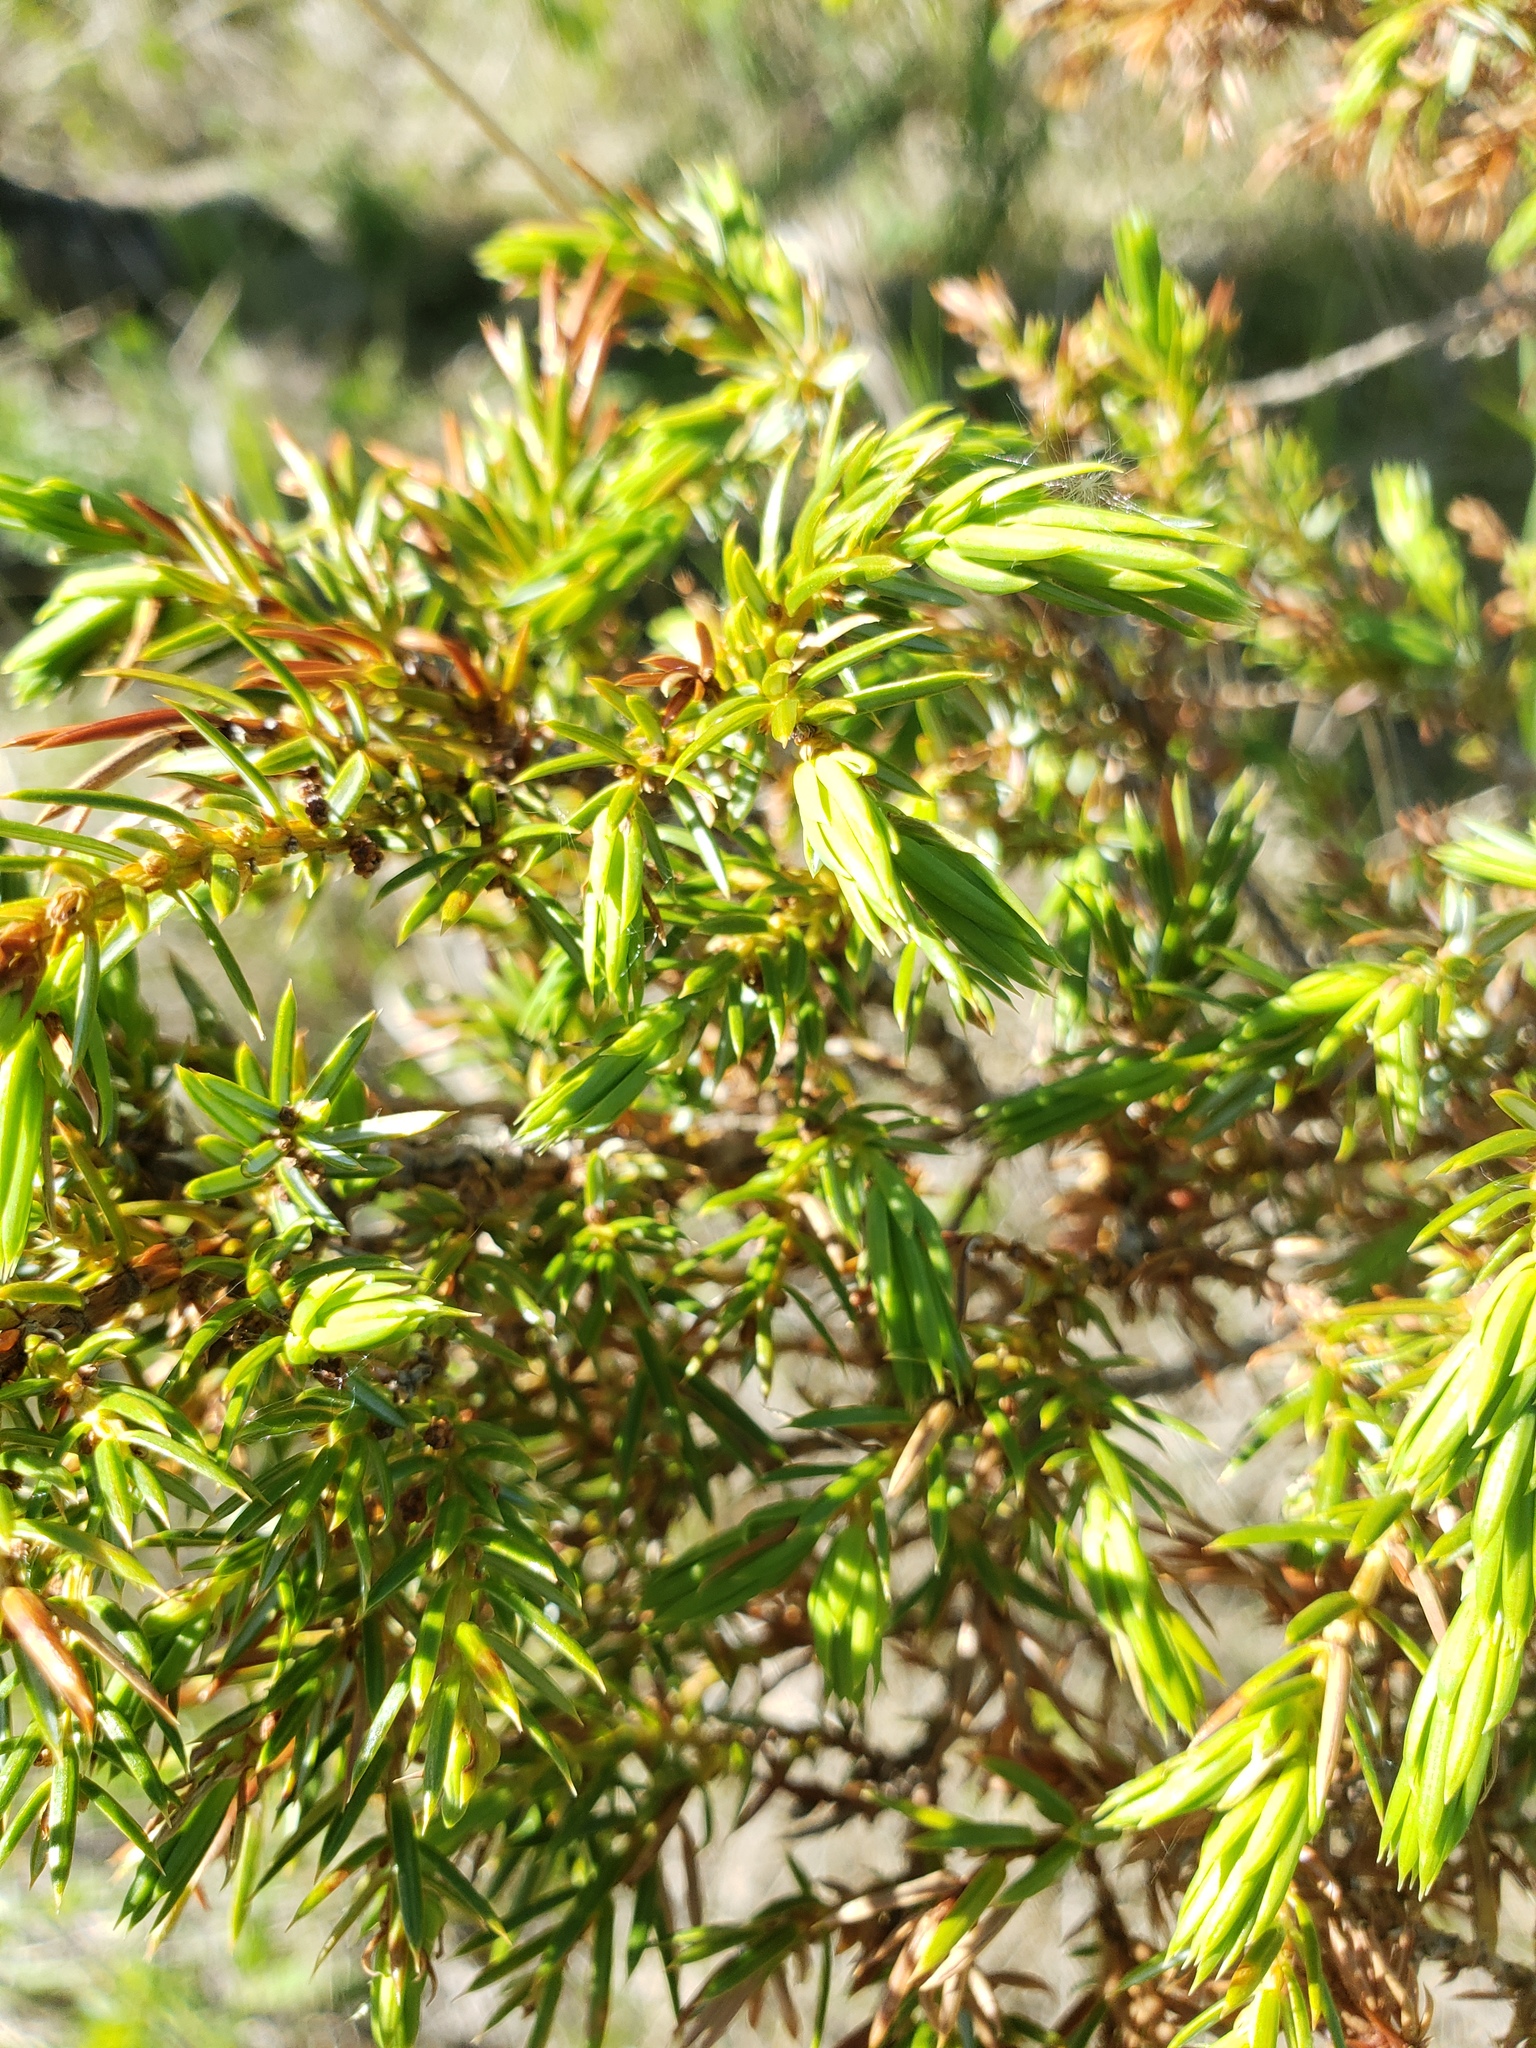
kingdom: Plantae
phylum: Tracheophyta
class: Pinopsida
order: Pinales
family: Cupressaceae
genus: Juniperus
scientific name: Juniperus communis
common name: Common juniper
